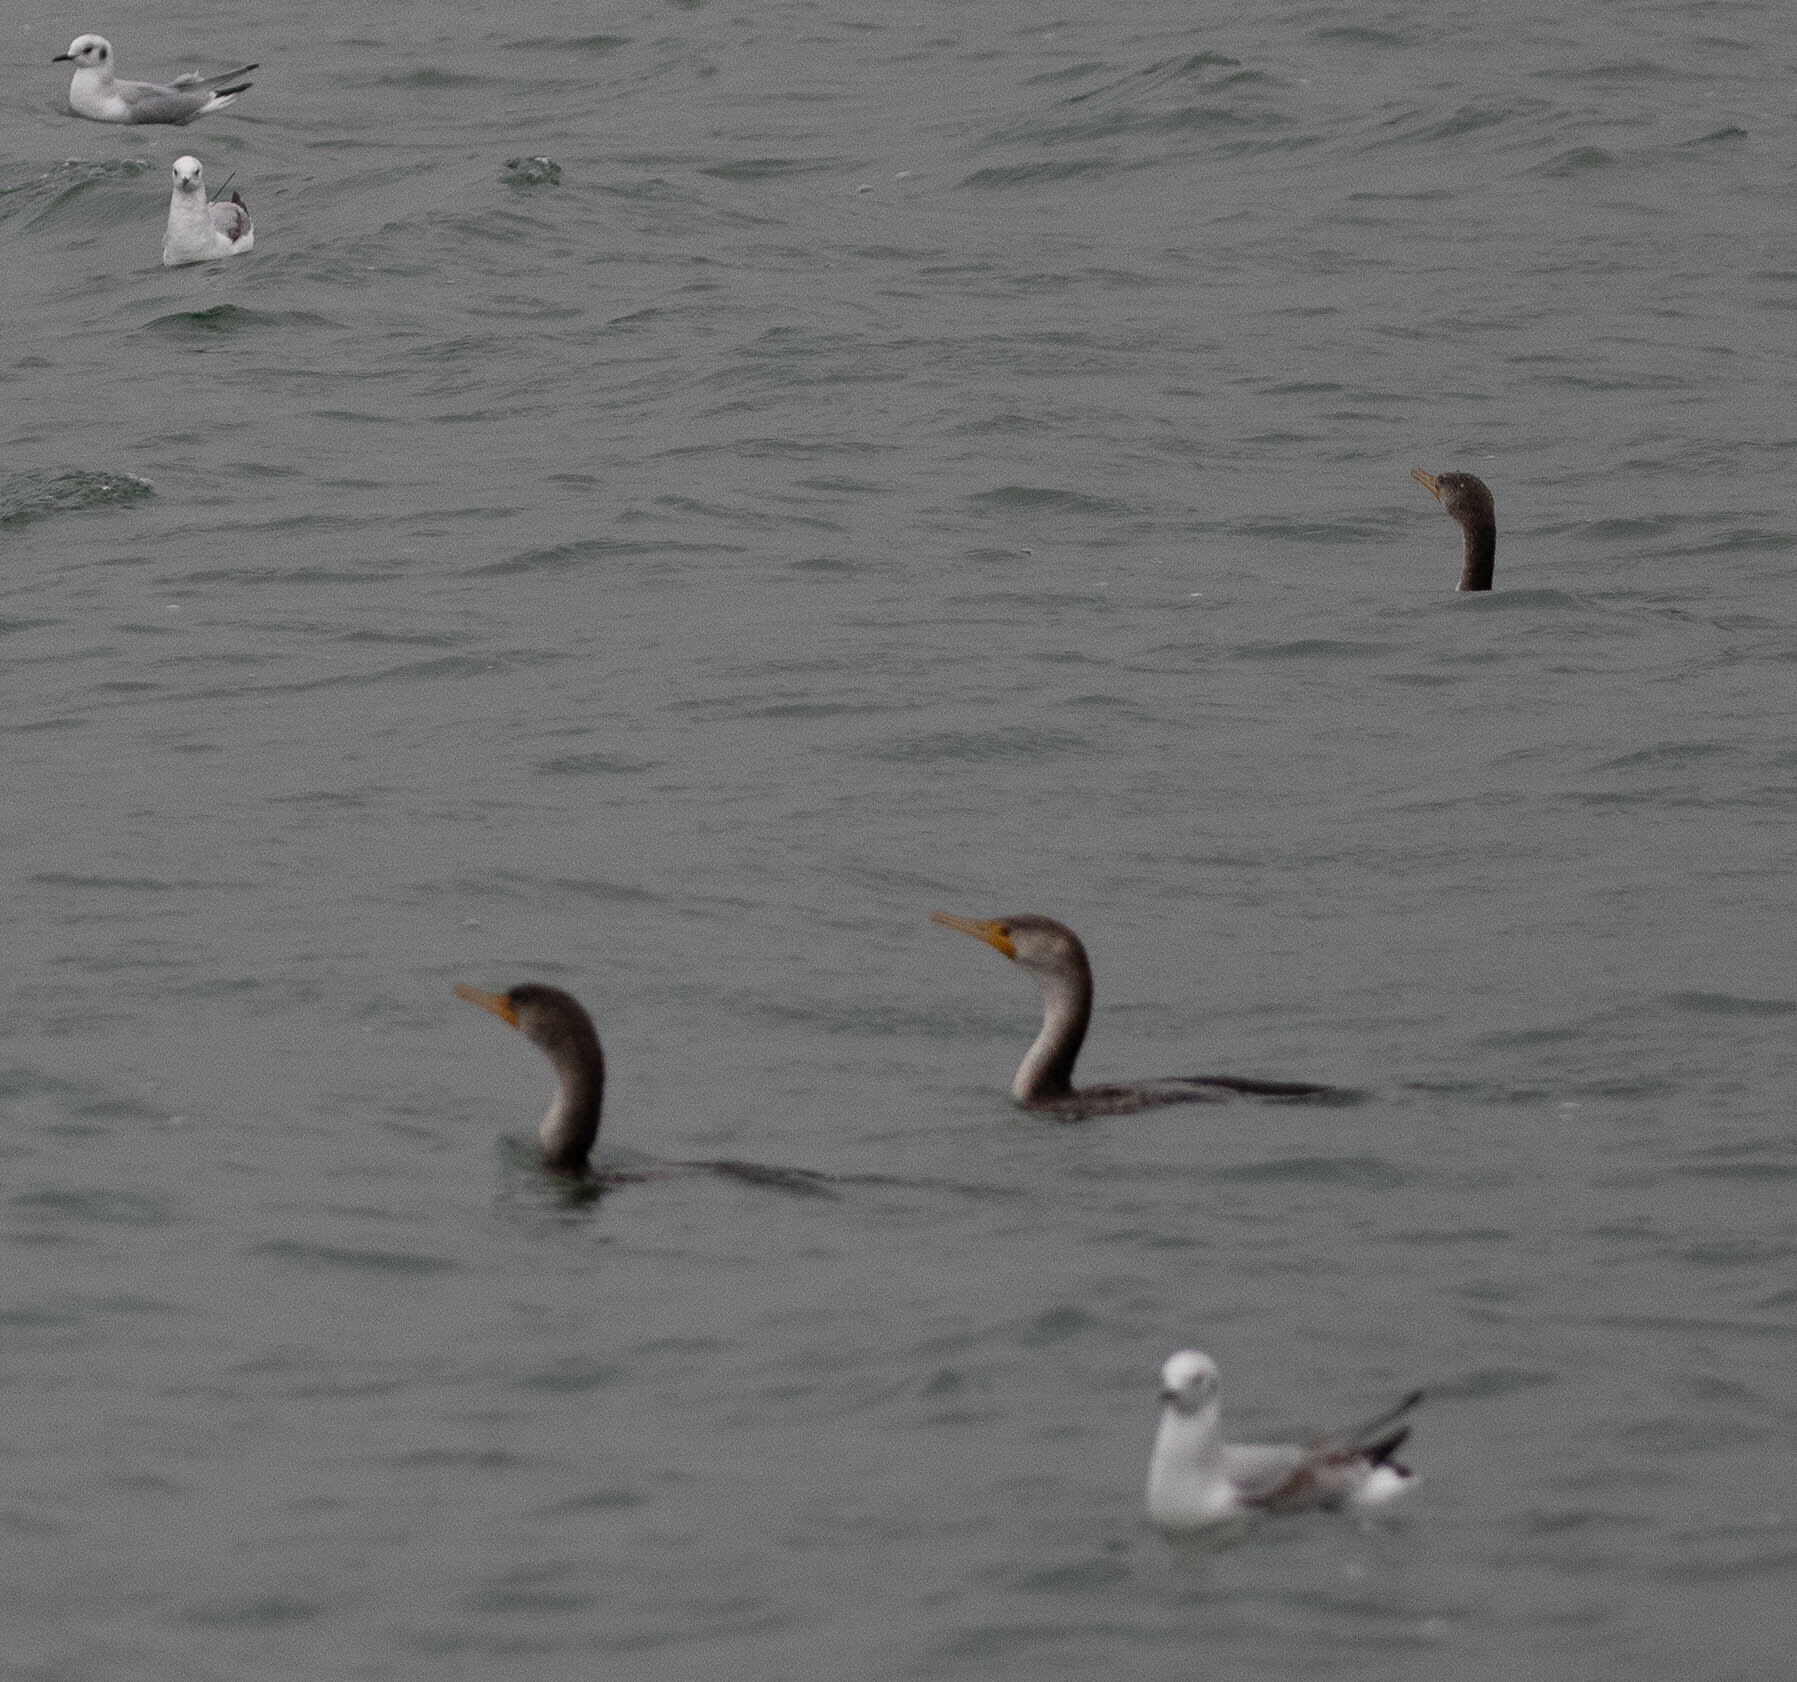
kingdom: Animalia
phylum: Chordata
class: Aves
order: Suliformes
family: Phalacrocoracidae
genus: Phalacrocorax
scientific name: Phalacrocorax auritus
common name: Double-crested cormorant
